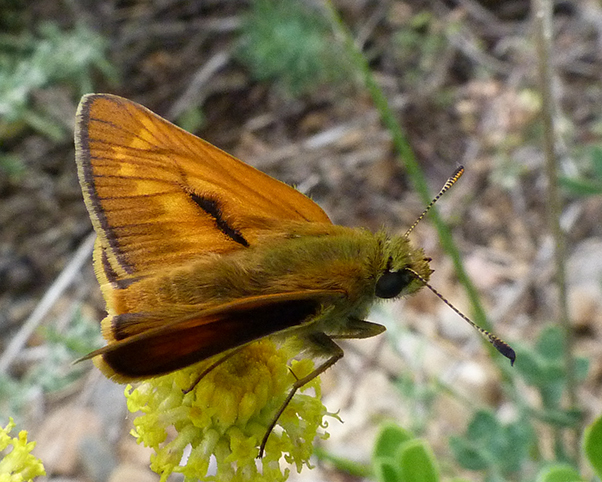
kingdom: Animalia
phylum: Arthropoda
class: Insecta
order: Lepidoptera
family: Hesperiidae
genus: Ochlodes
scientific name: Ochlodes venata
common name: Large skipper
